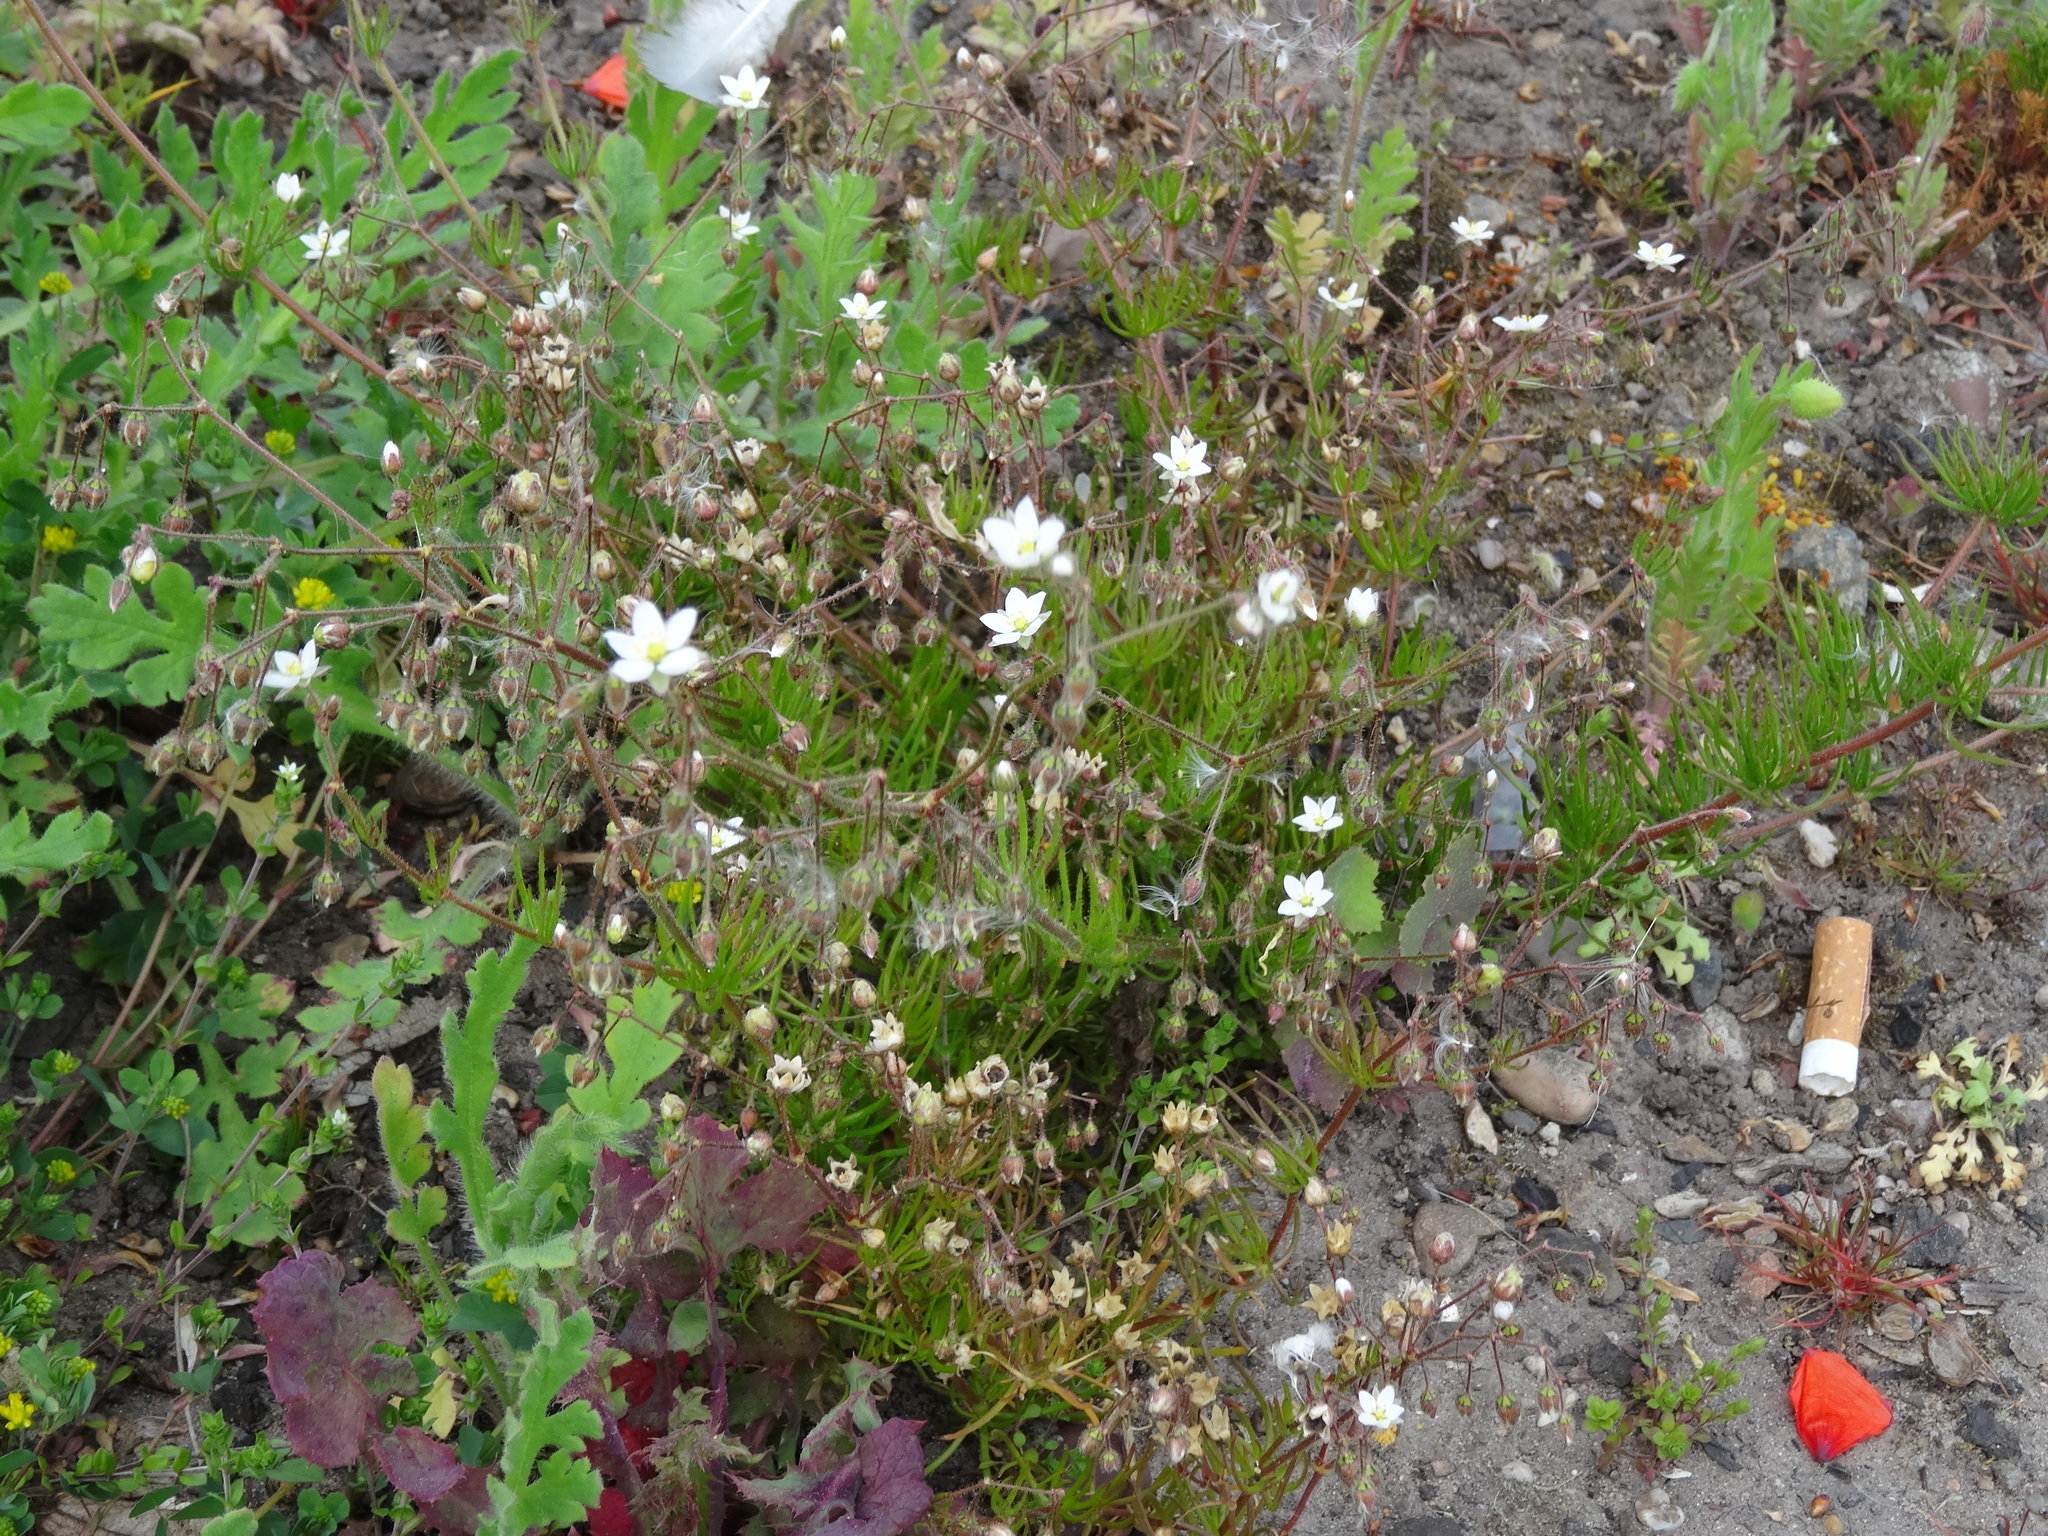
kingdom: Plantae
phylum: Tracheophyta
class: Magnoliopsida
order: Caryophyllales
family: Caryophyllaceae
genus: Spergula
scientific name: Spergula arvensis
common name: Corn spurrey
